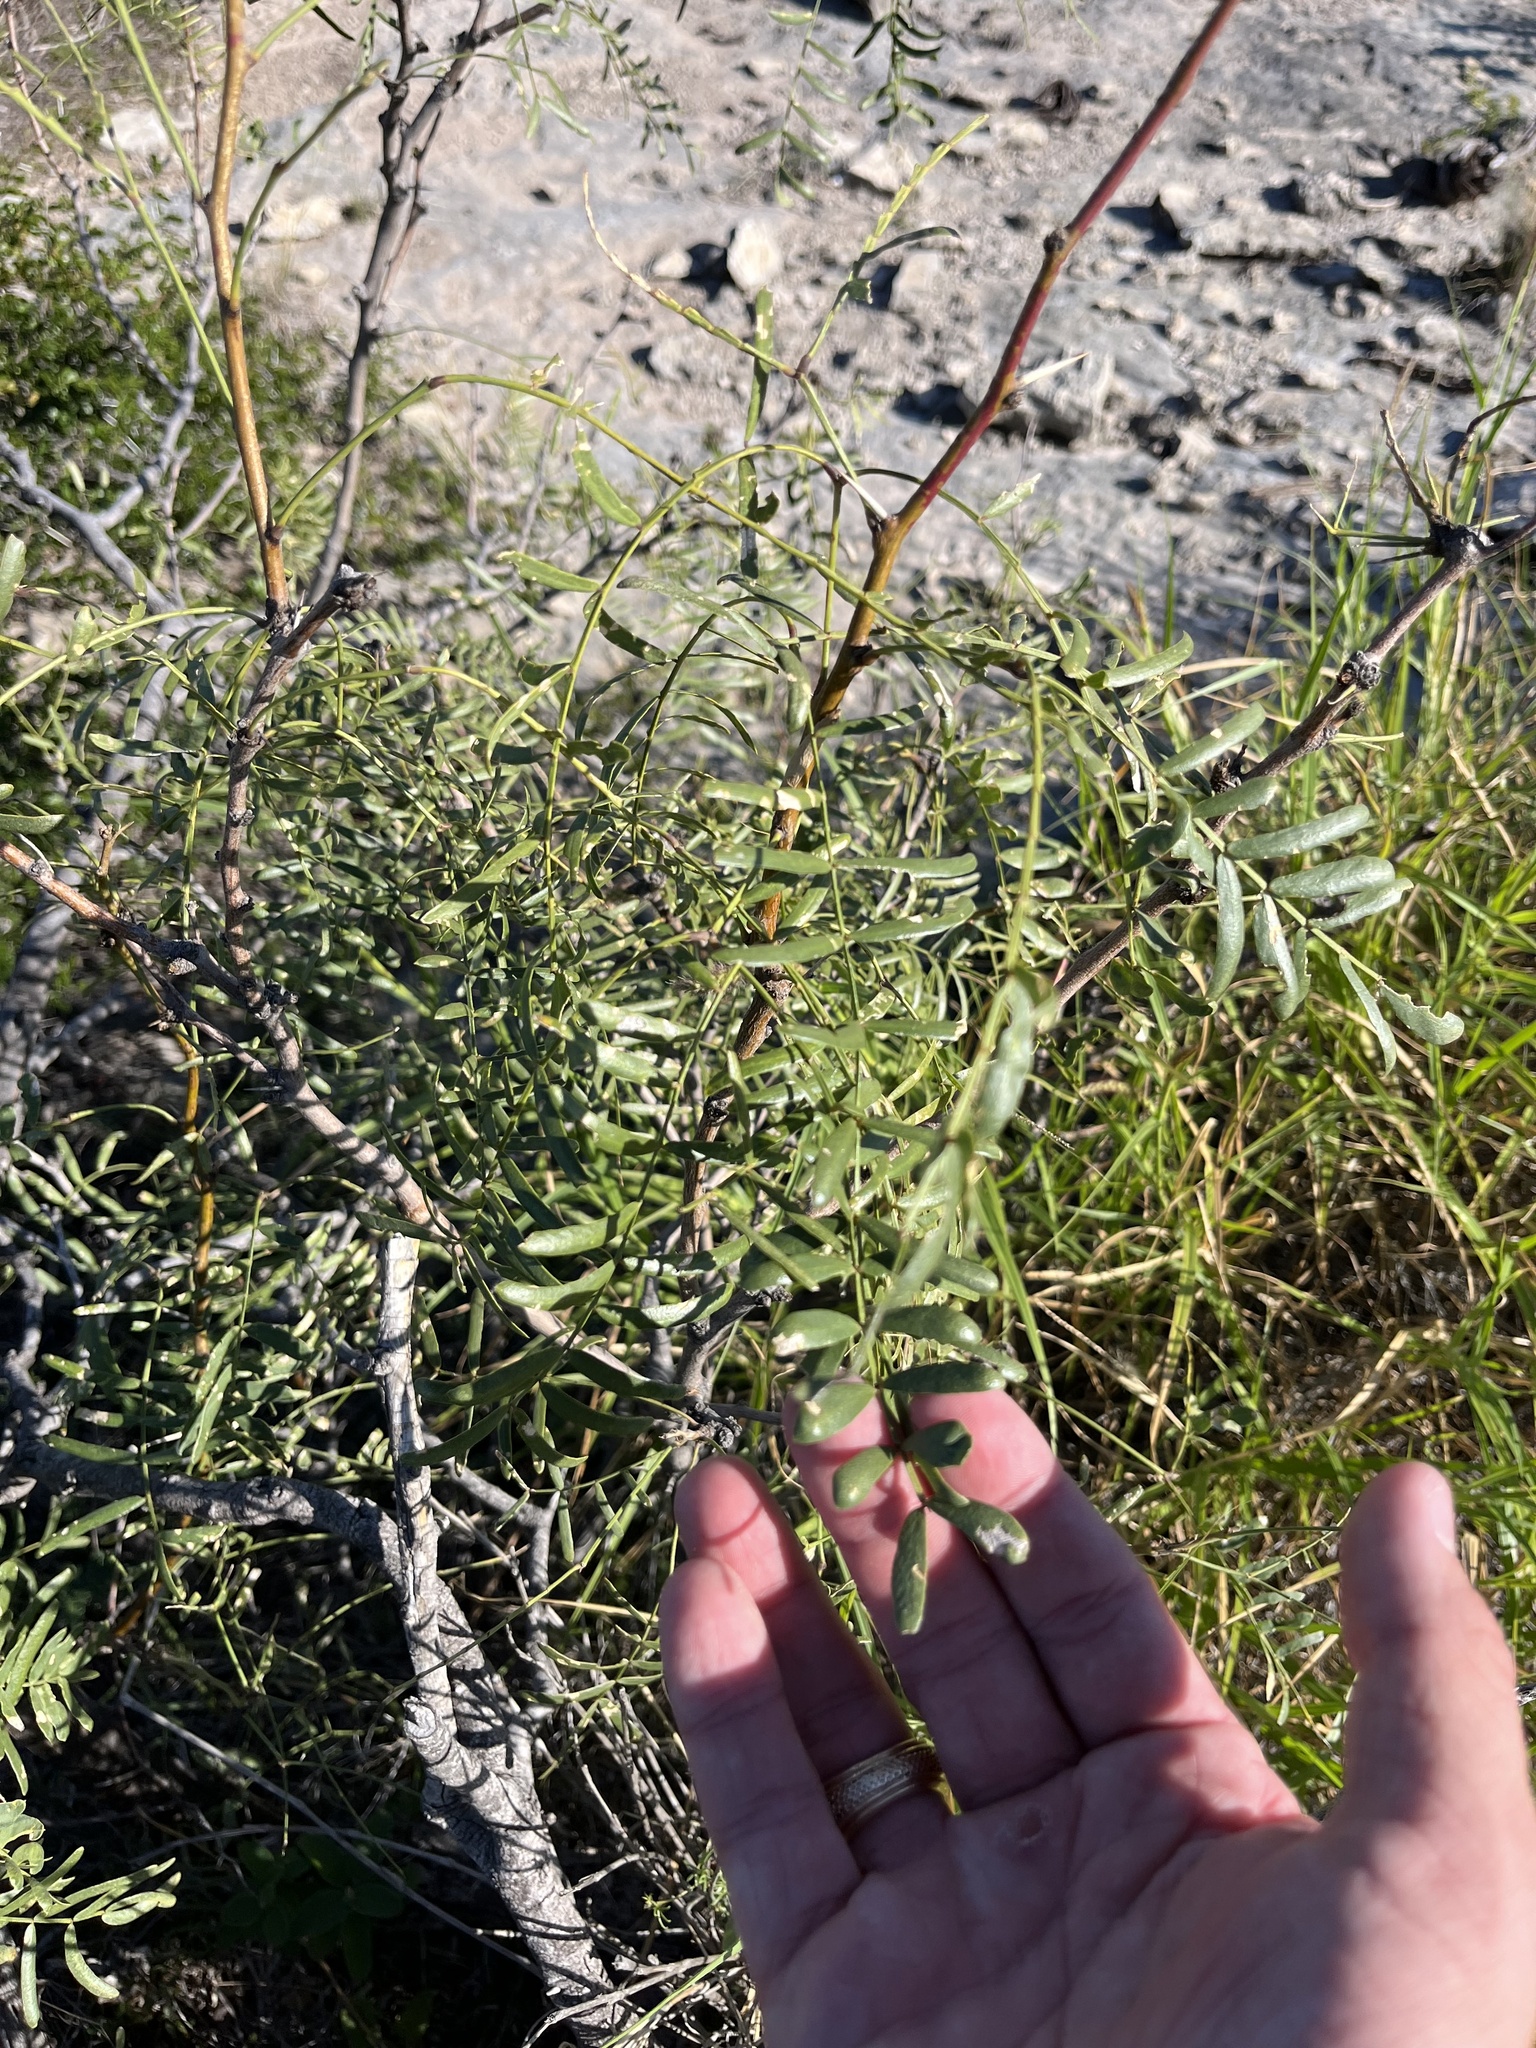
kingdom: Plantae
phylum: Tracheophyta
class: Magnoliopsida
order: Fabales
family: Fabaceae
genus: Prosopis
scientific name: Prosopis glandulosa
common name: Honey mesquite
